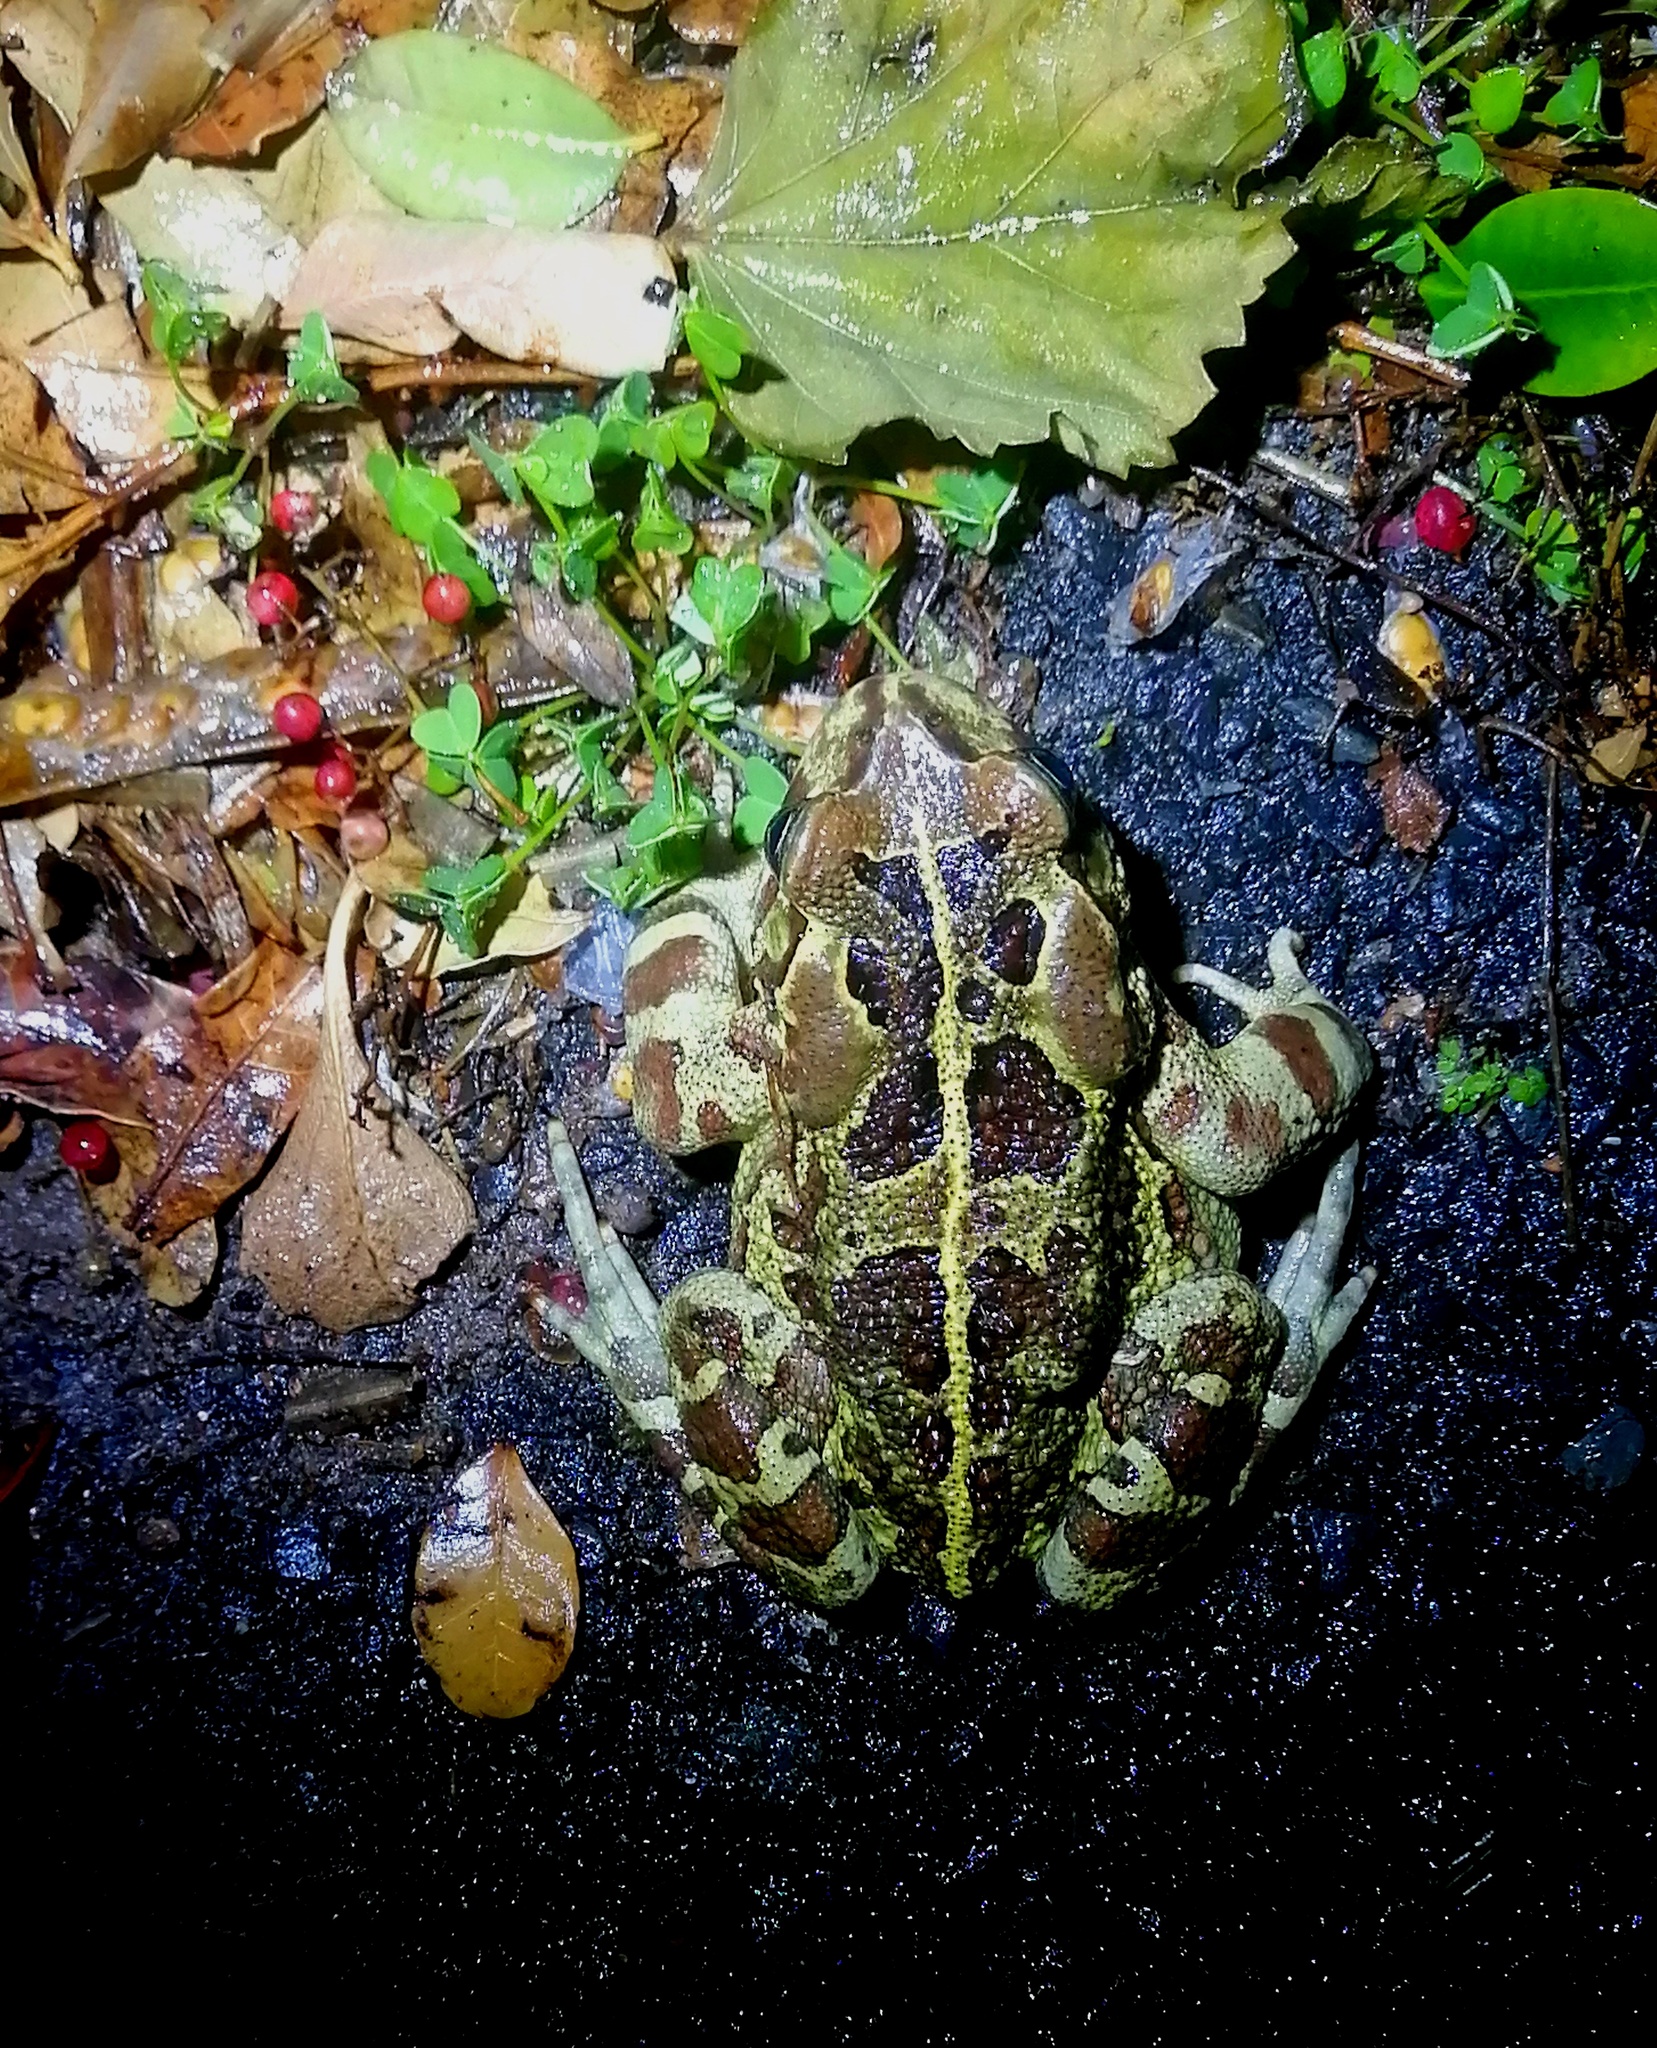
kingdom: Animalia
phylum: Chordata
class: Amphibia
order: Anura
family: Bufonidae
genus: Sclerophrys
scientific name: Sclerophrys pantherina
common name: Panther toad
